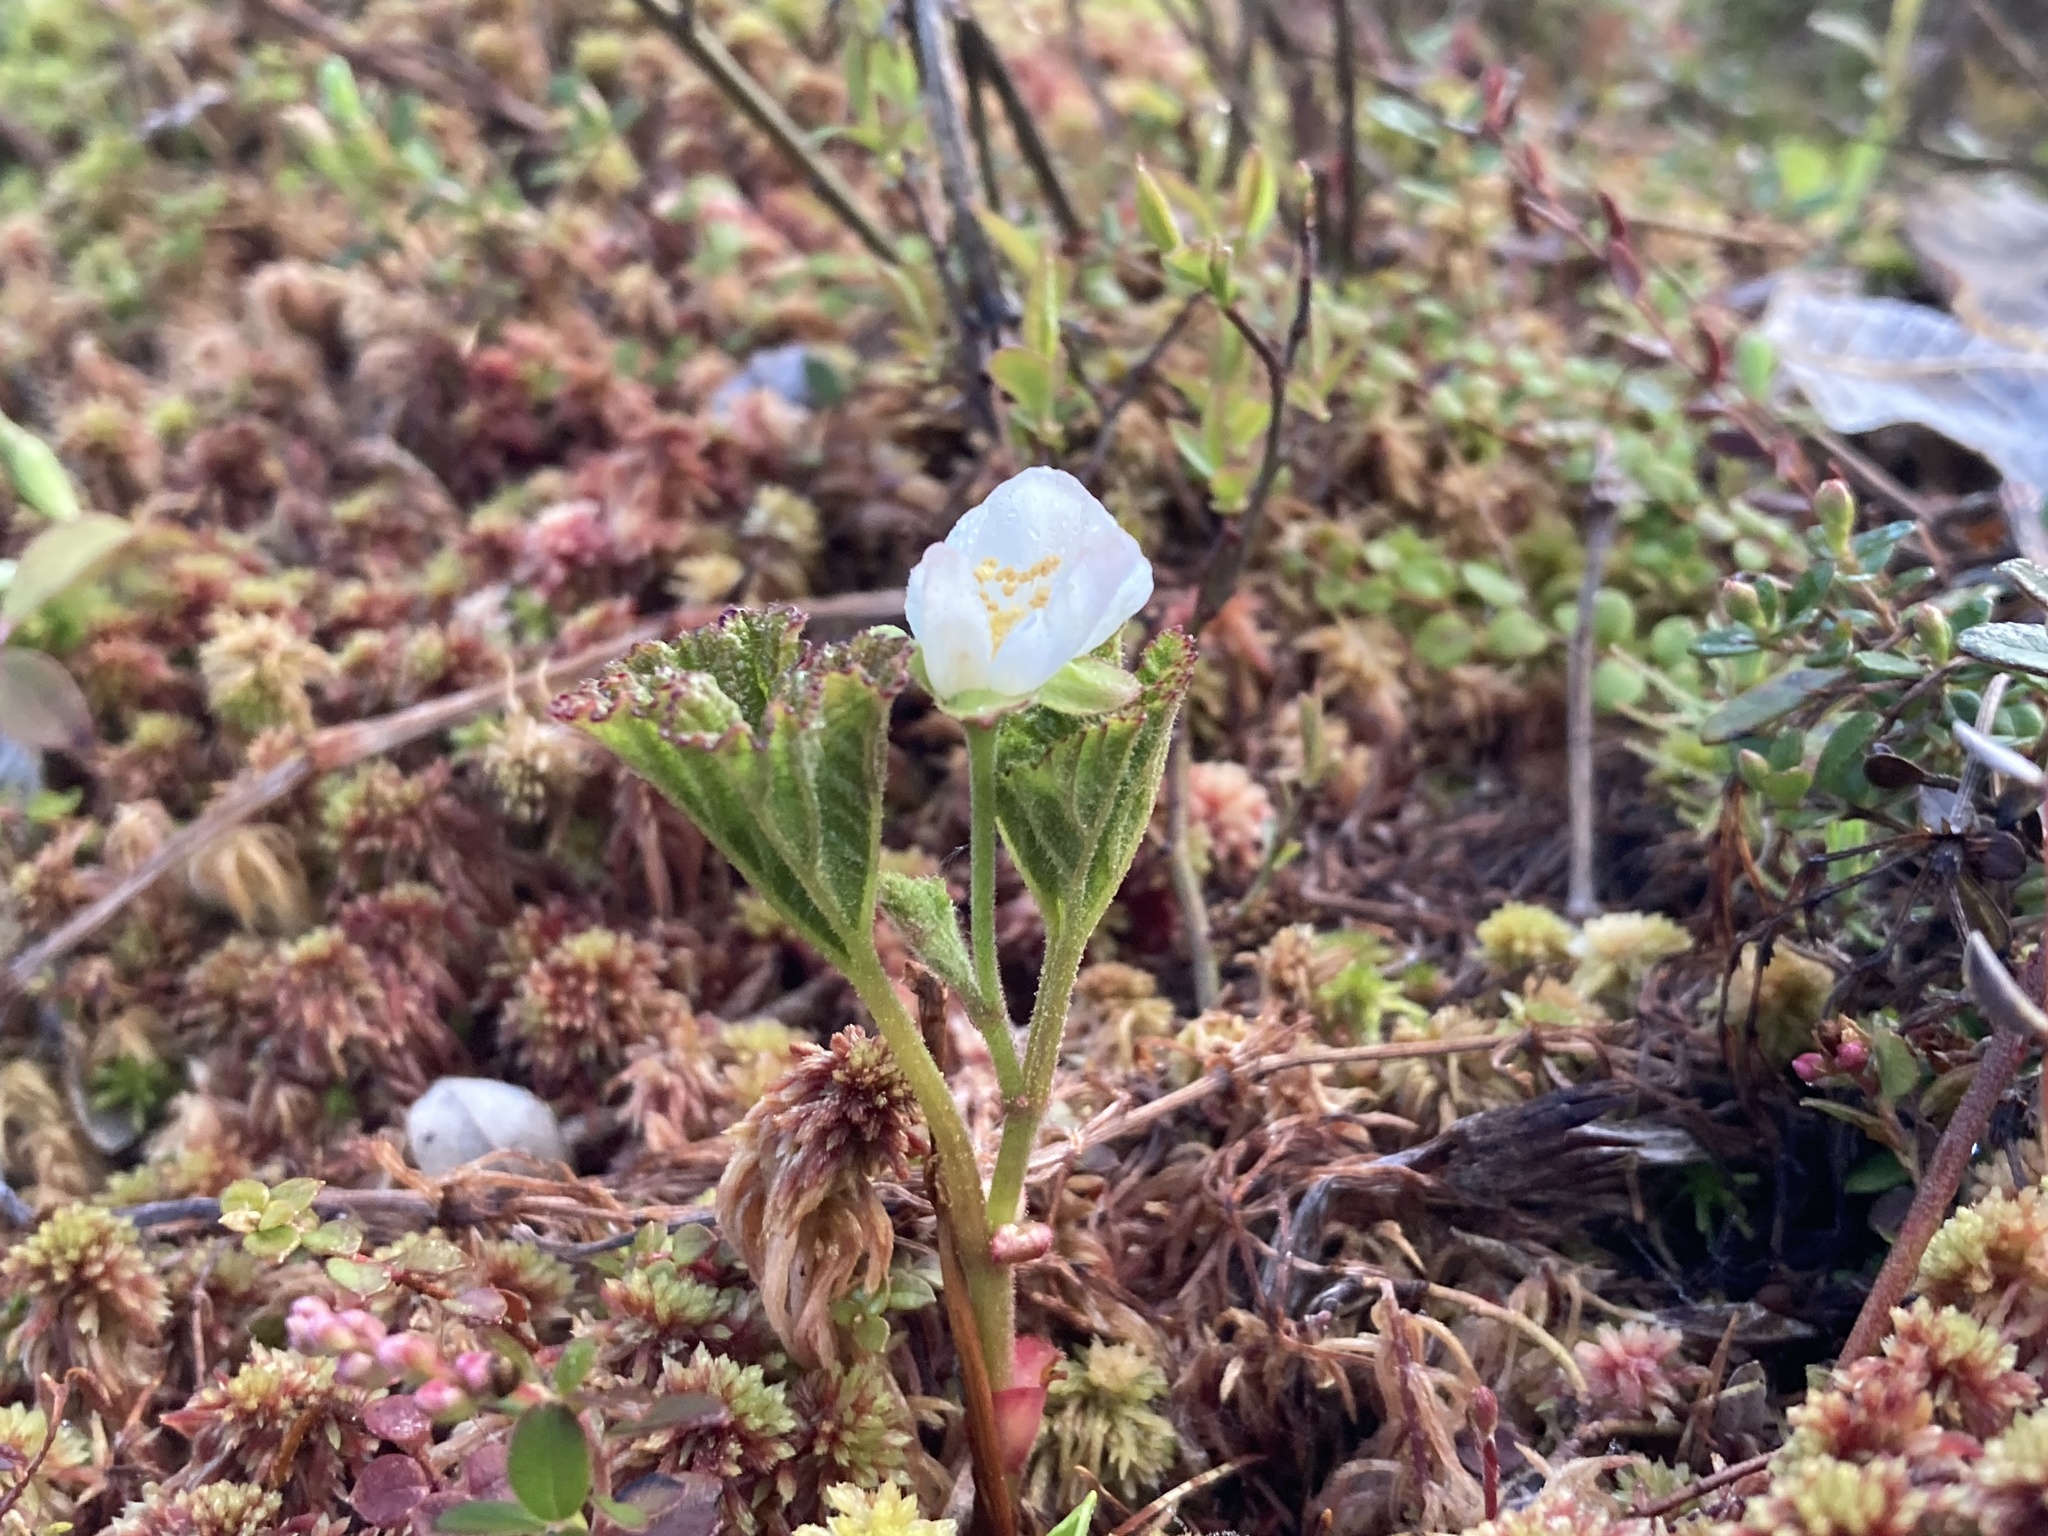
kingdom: Plantae
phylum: Tracheophyta
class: Magnoliopsida
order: Rosales
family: Rosaceae
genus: Rubus
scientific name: Rubus chamaemorus
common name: Cloudberry
